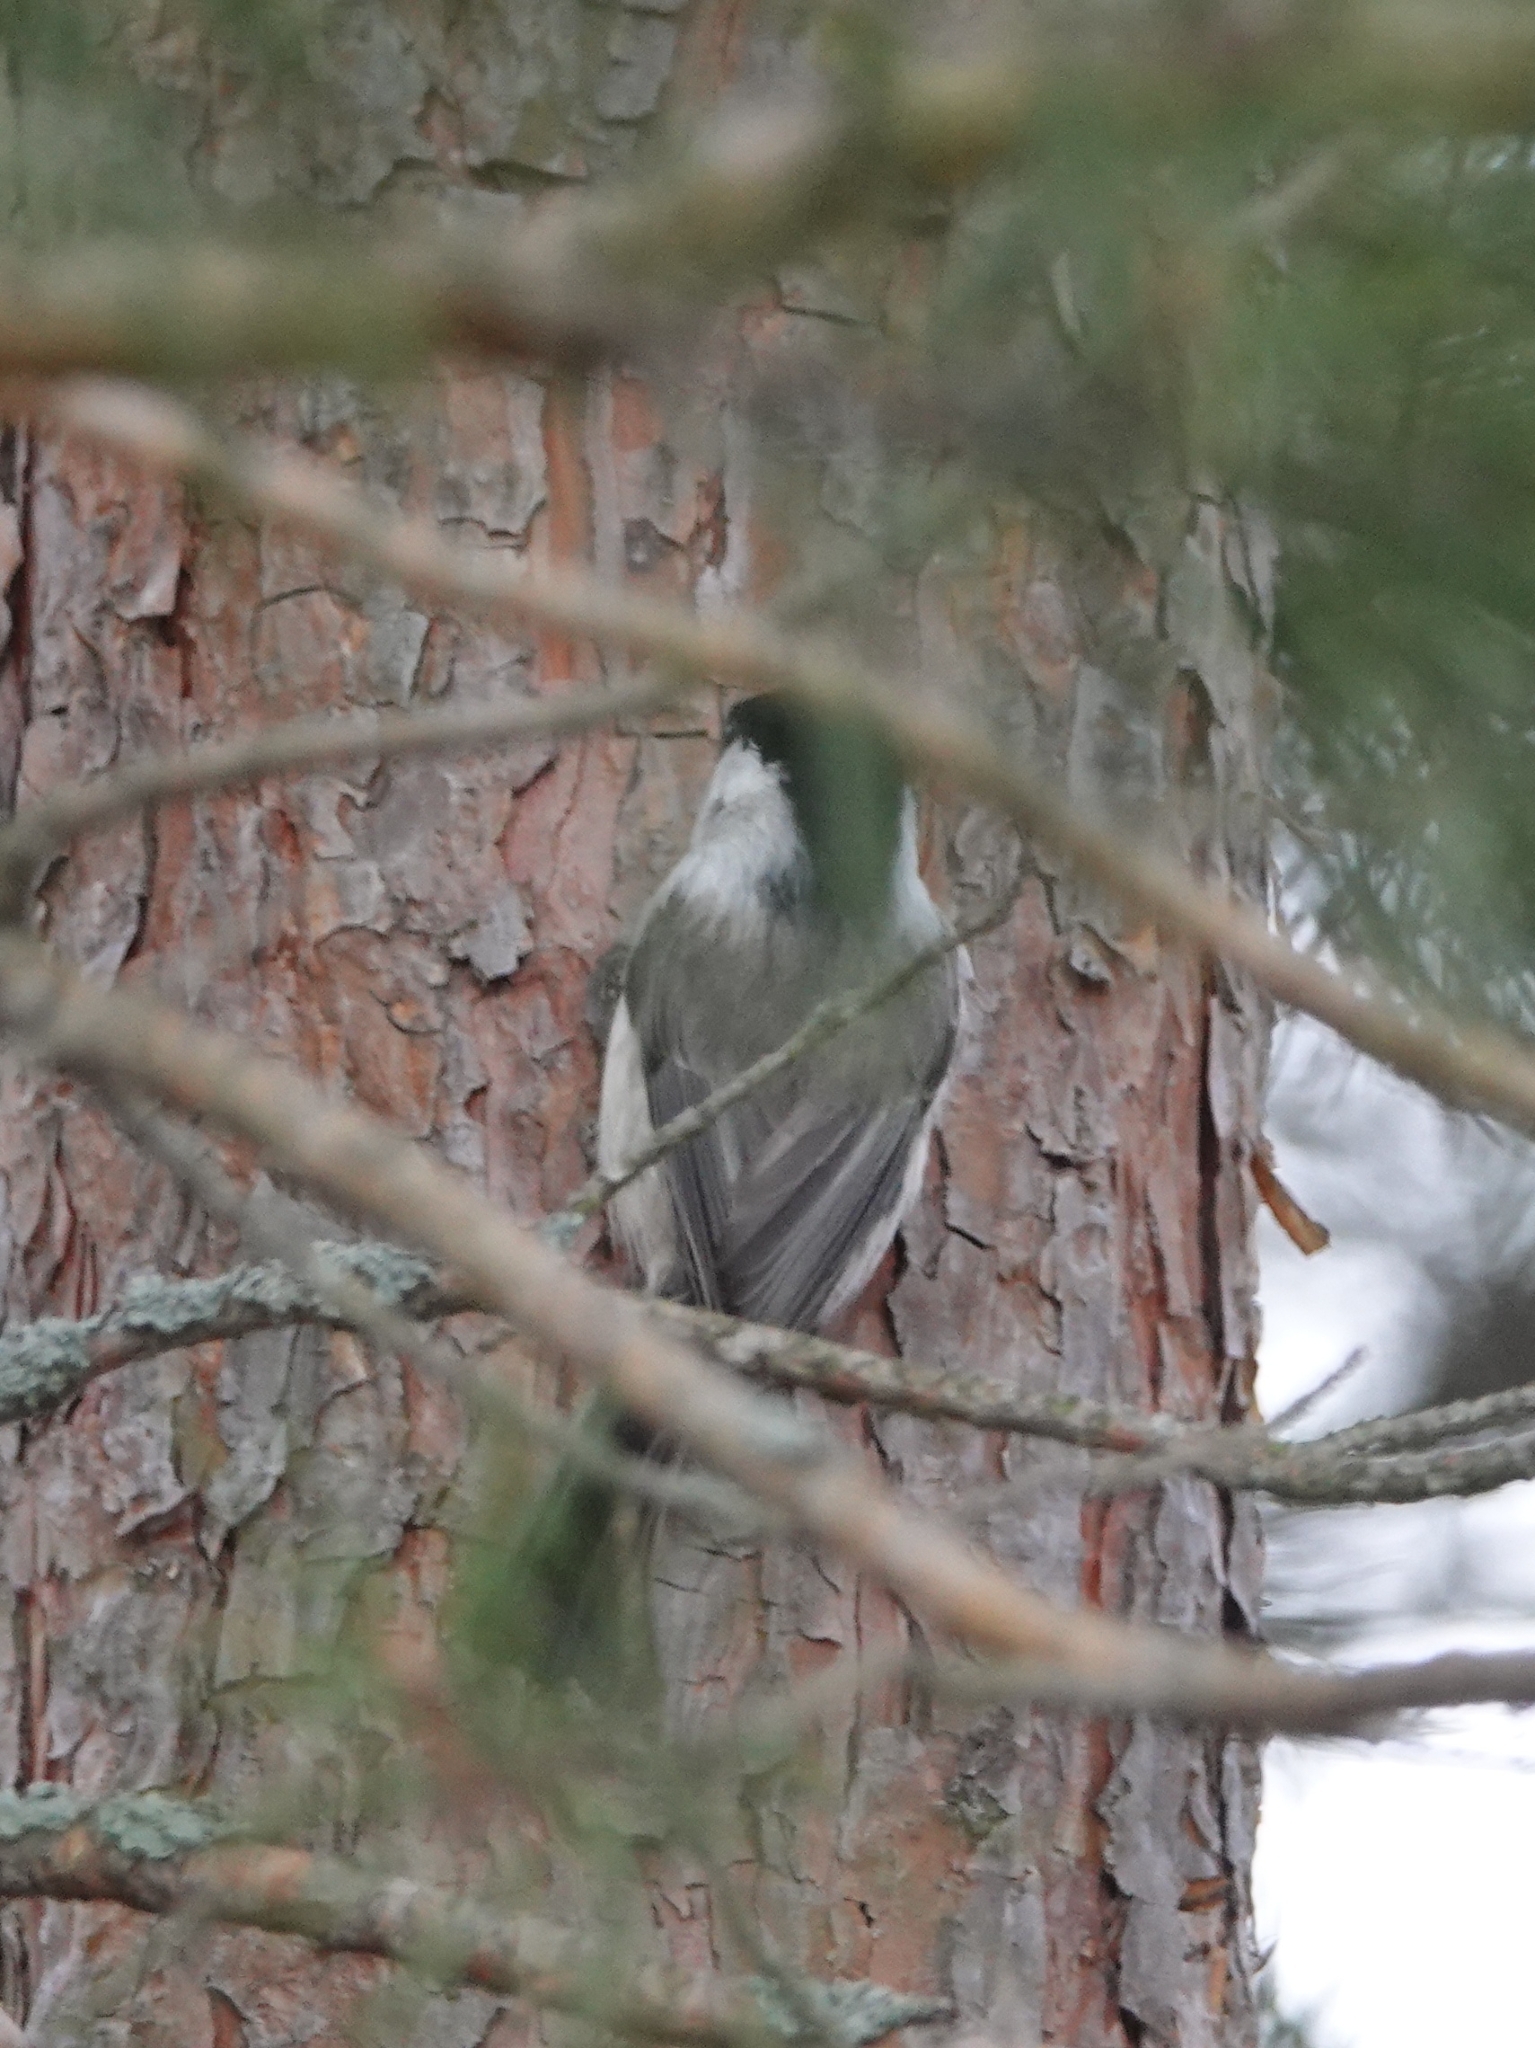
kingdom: Animalia
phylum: Chordata
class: Aves
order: Passeriformes
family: Paridae
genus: Poecile
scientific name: Poecile montanus
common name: Willow tit
